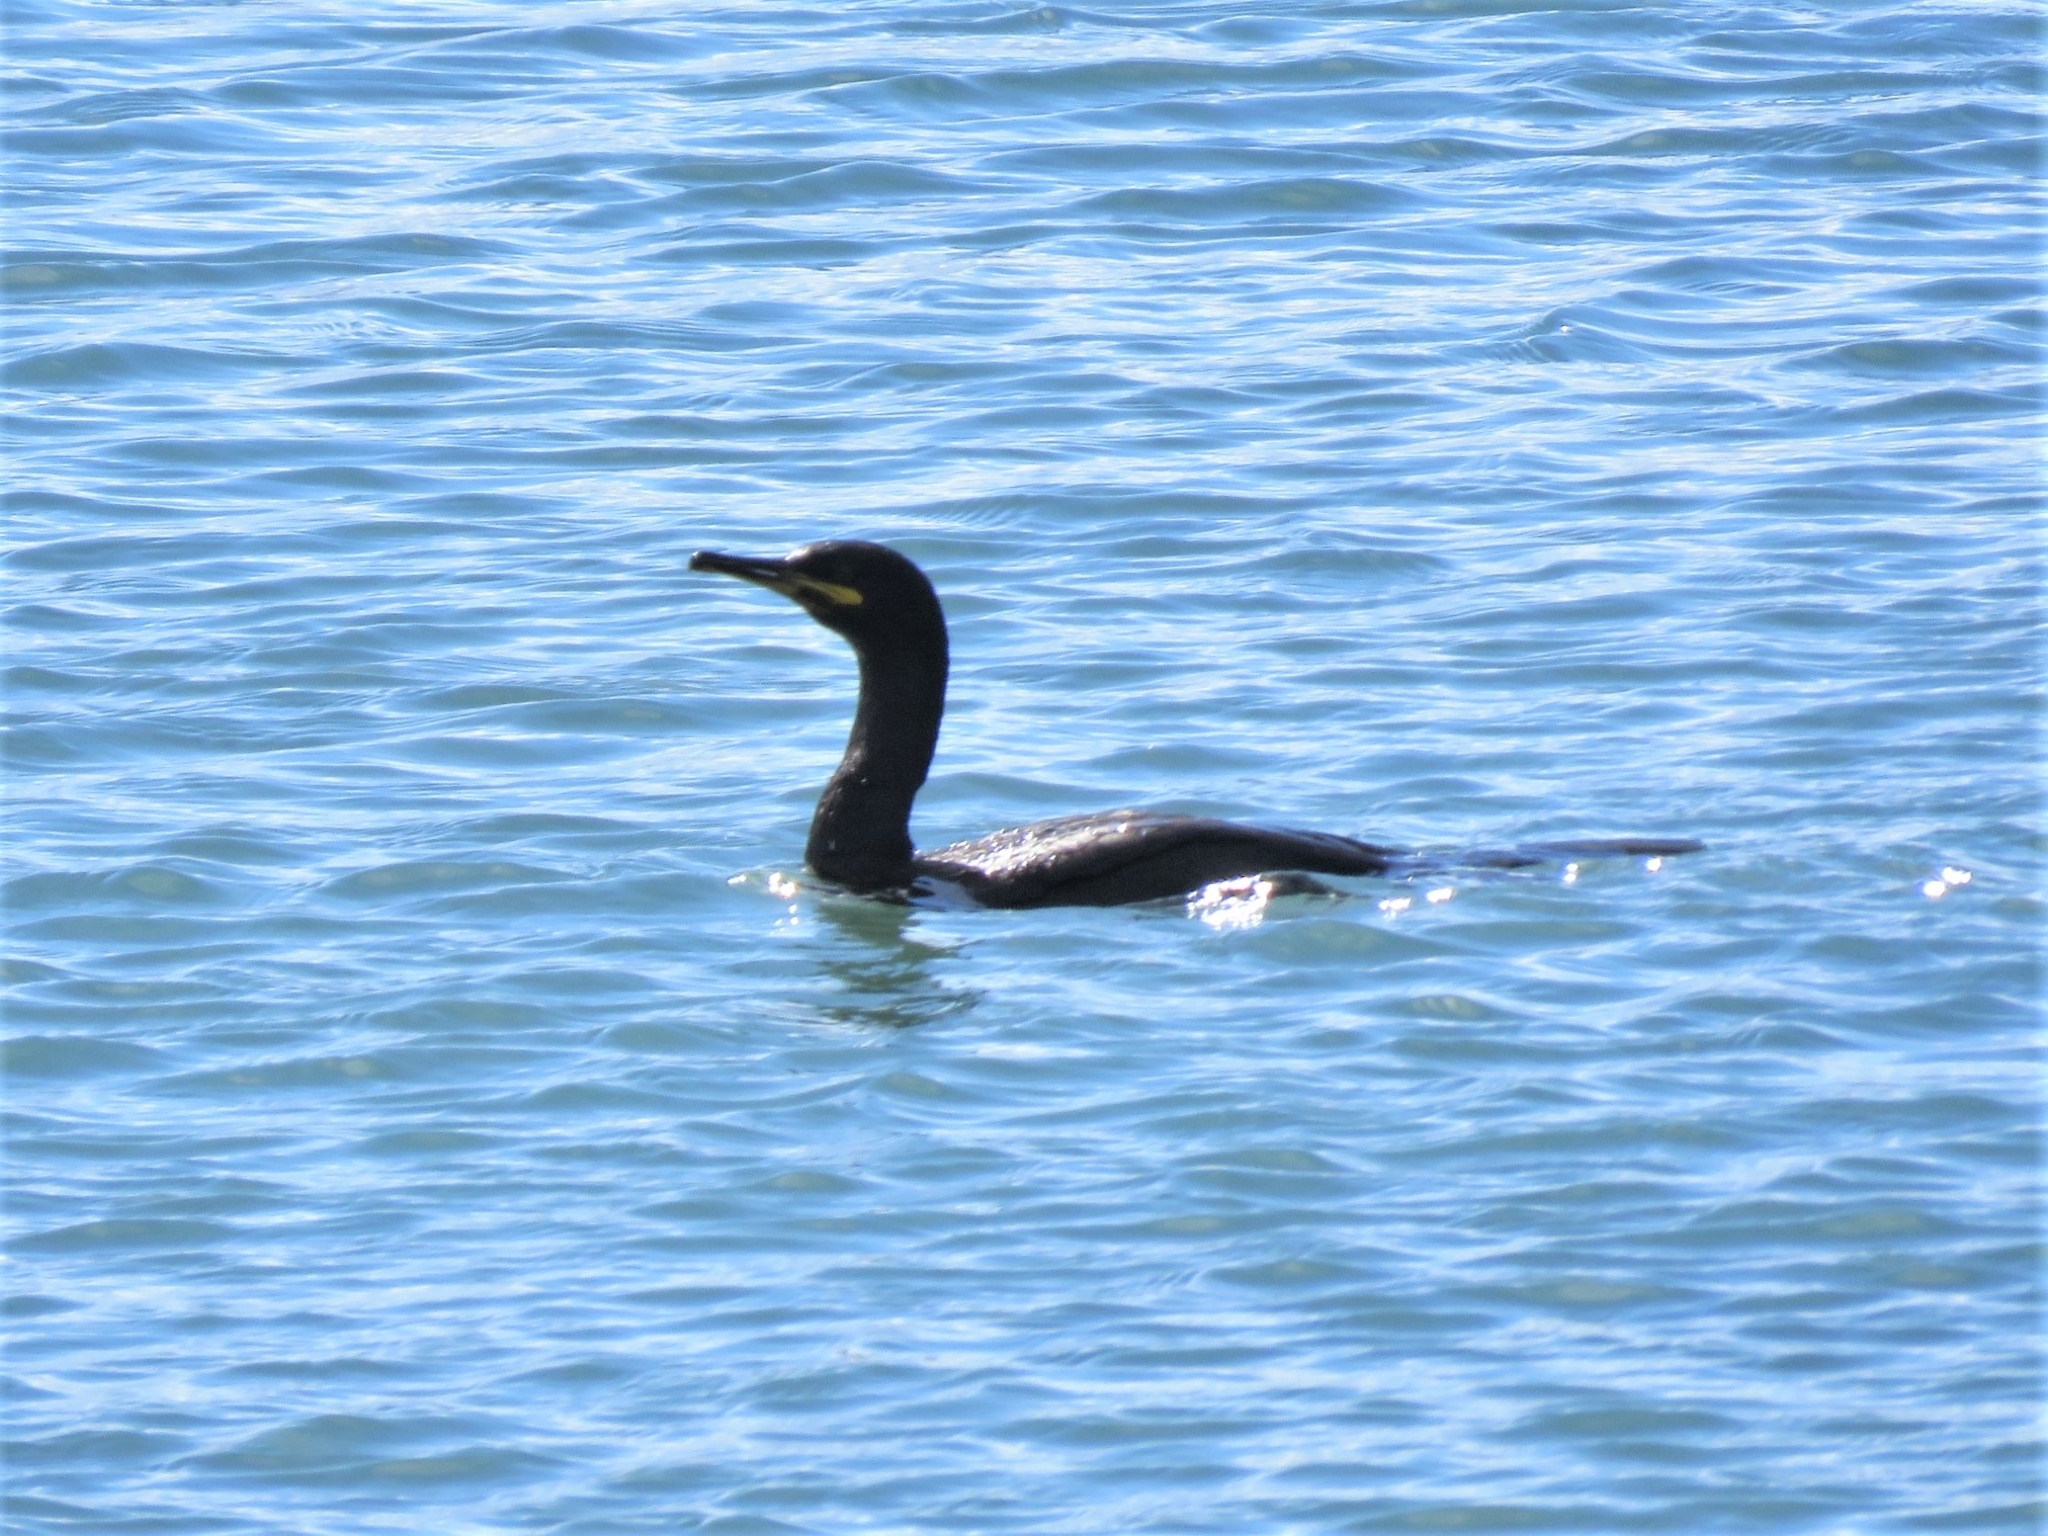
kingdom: Animalia
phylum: Chordata
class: Aves
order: Suliformes
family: Phalacrocoracidae
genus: Phalacrocorax
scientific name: Phalacrocorax aristotelis
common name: European shag
